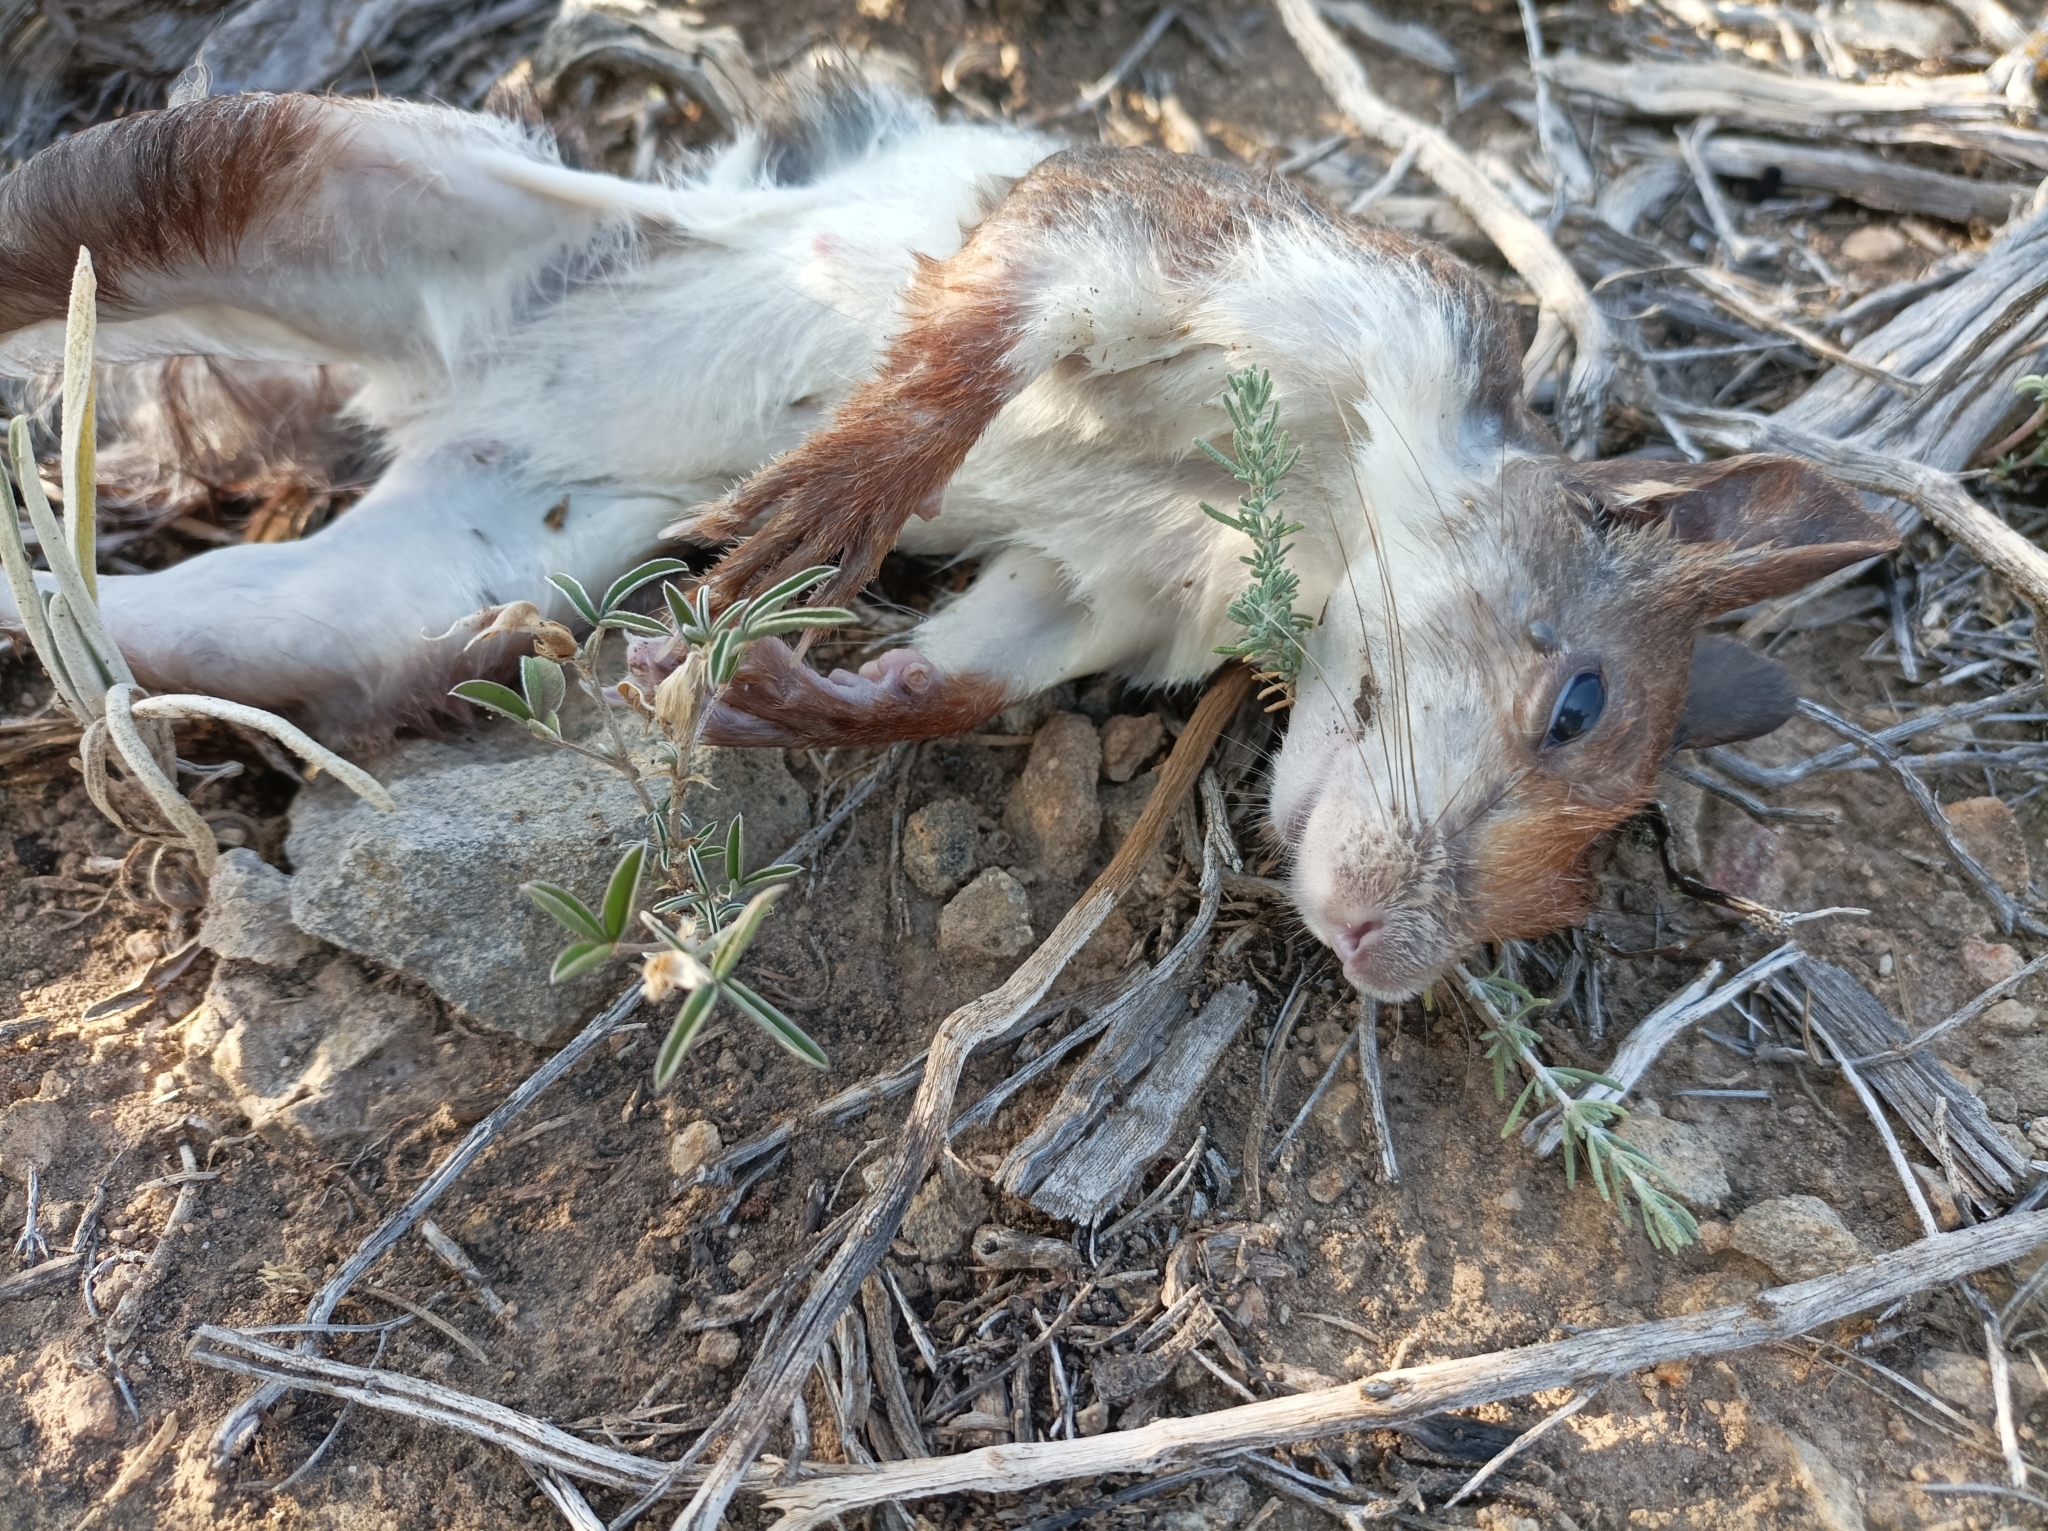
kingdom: Animalia
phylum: Chordata
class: Mammalia
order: Rodentia
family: Sciuridae
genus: Sciurus
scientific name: Sciurus vulgaris
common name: Eurasian red squirrel
